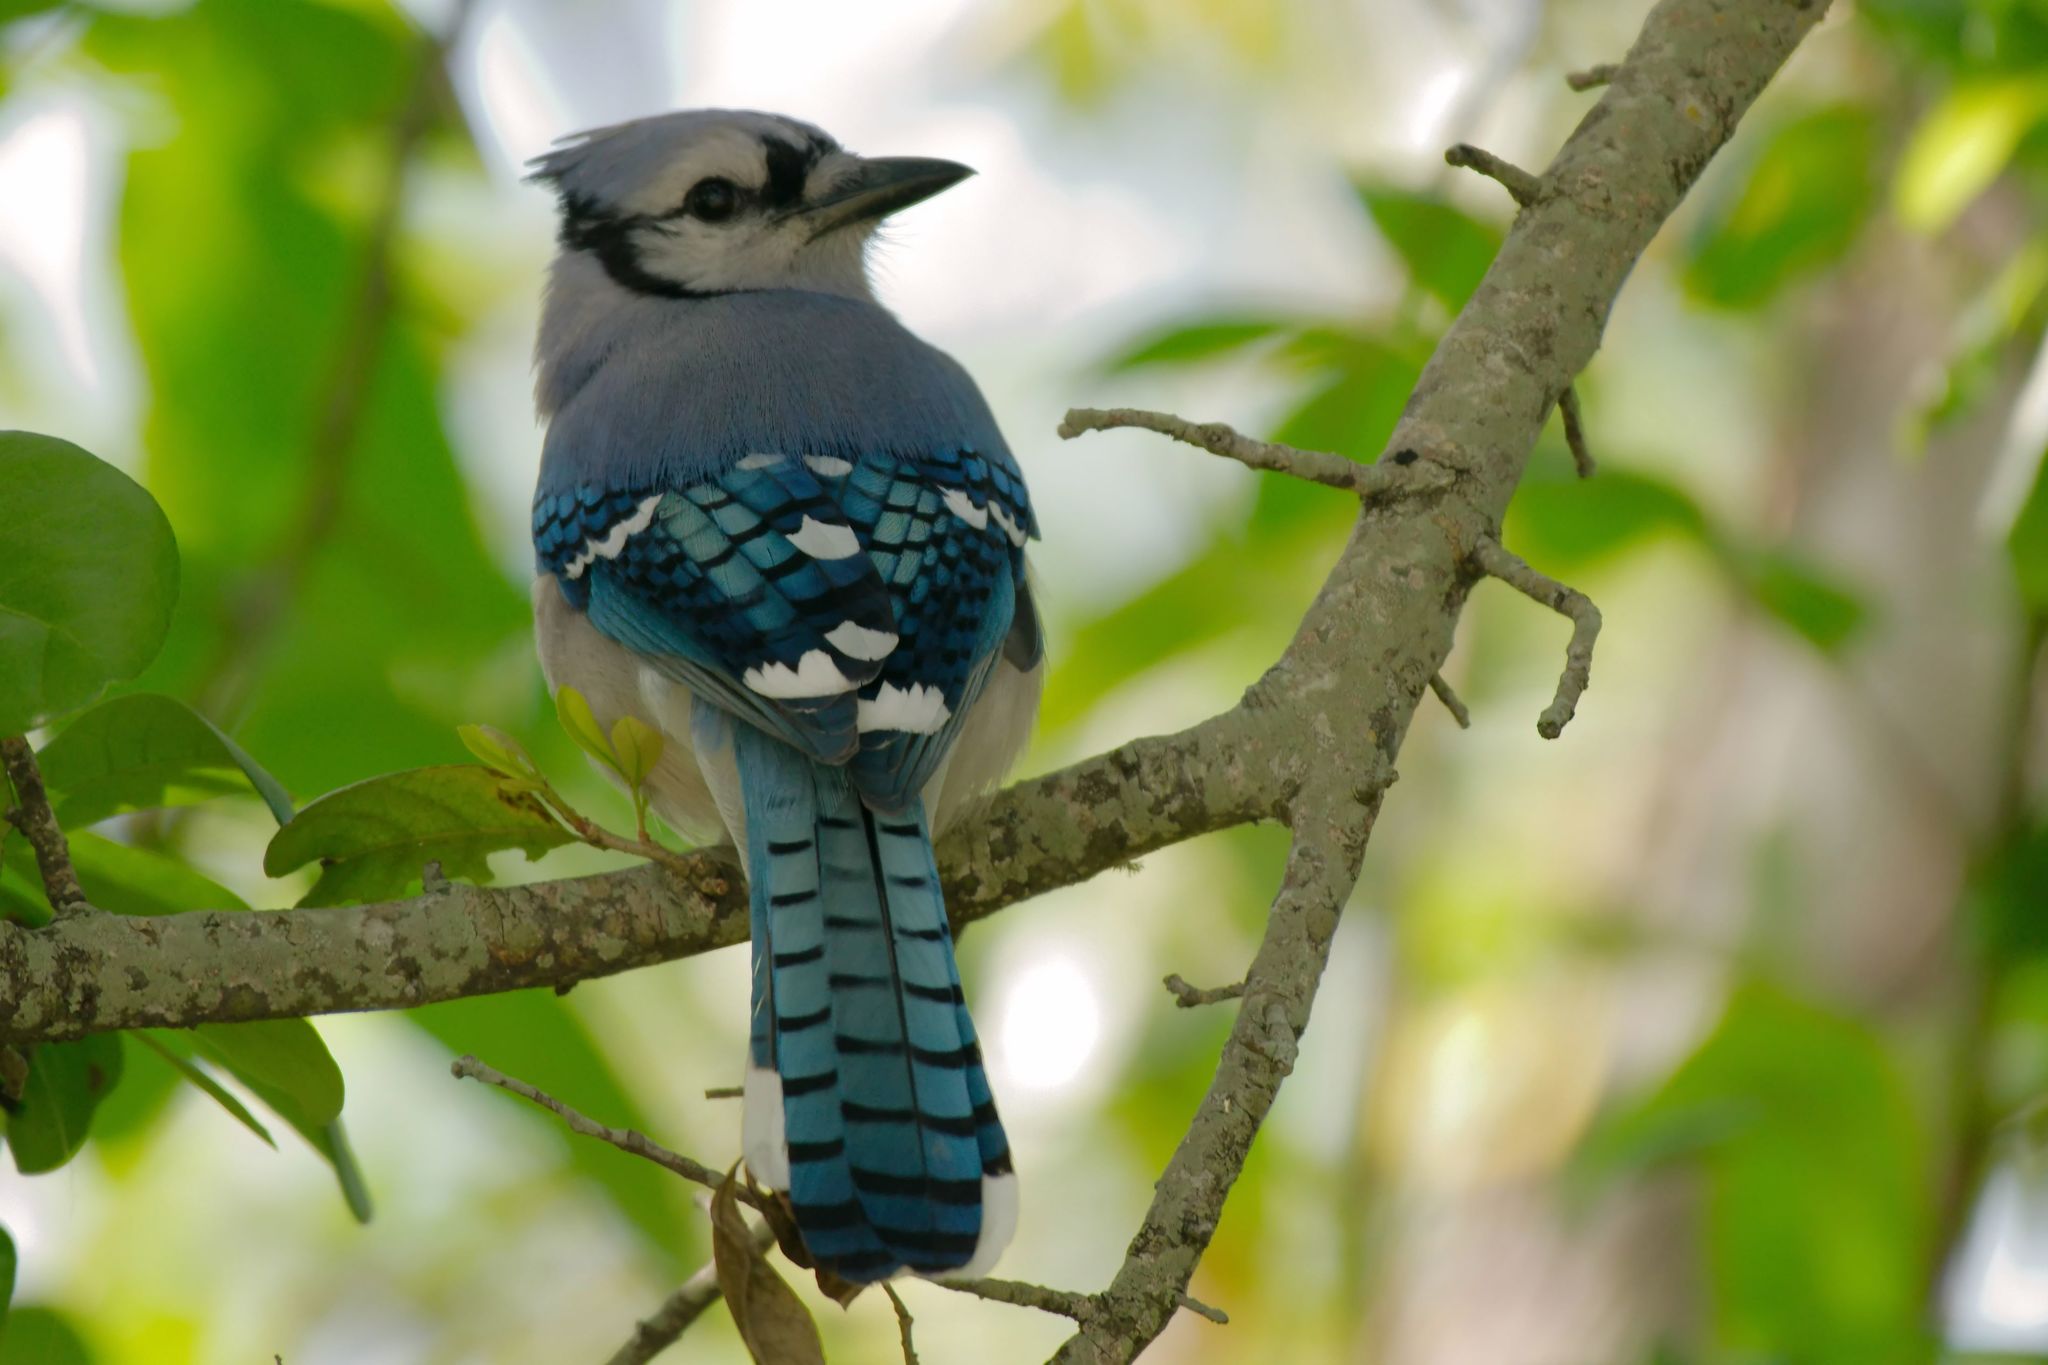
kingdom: Animalia
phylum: Chordata
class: Aves
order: Passeriformes
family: Corvidae
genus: Cyanocitta
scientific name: Cyanocitta cristata
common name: Blue jay
